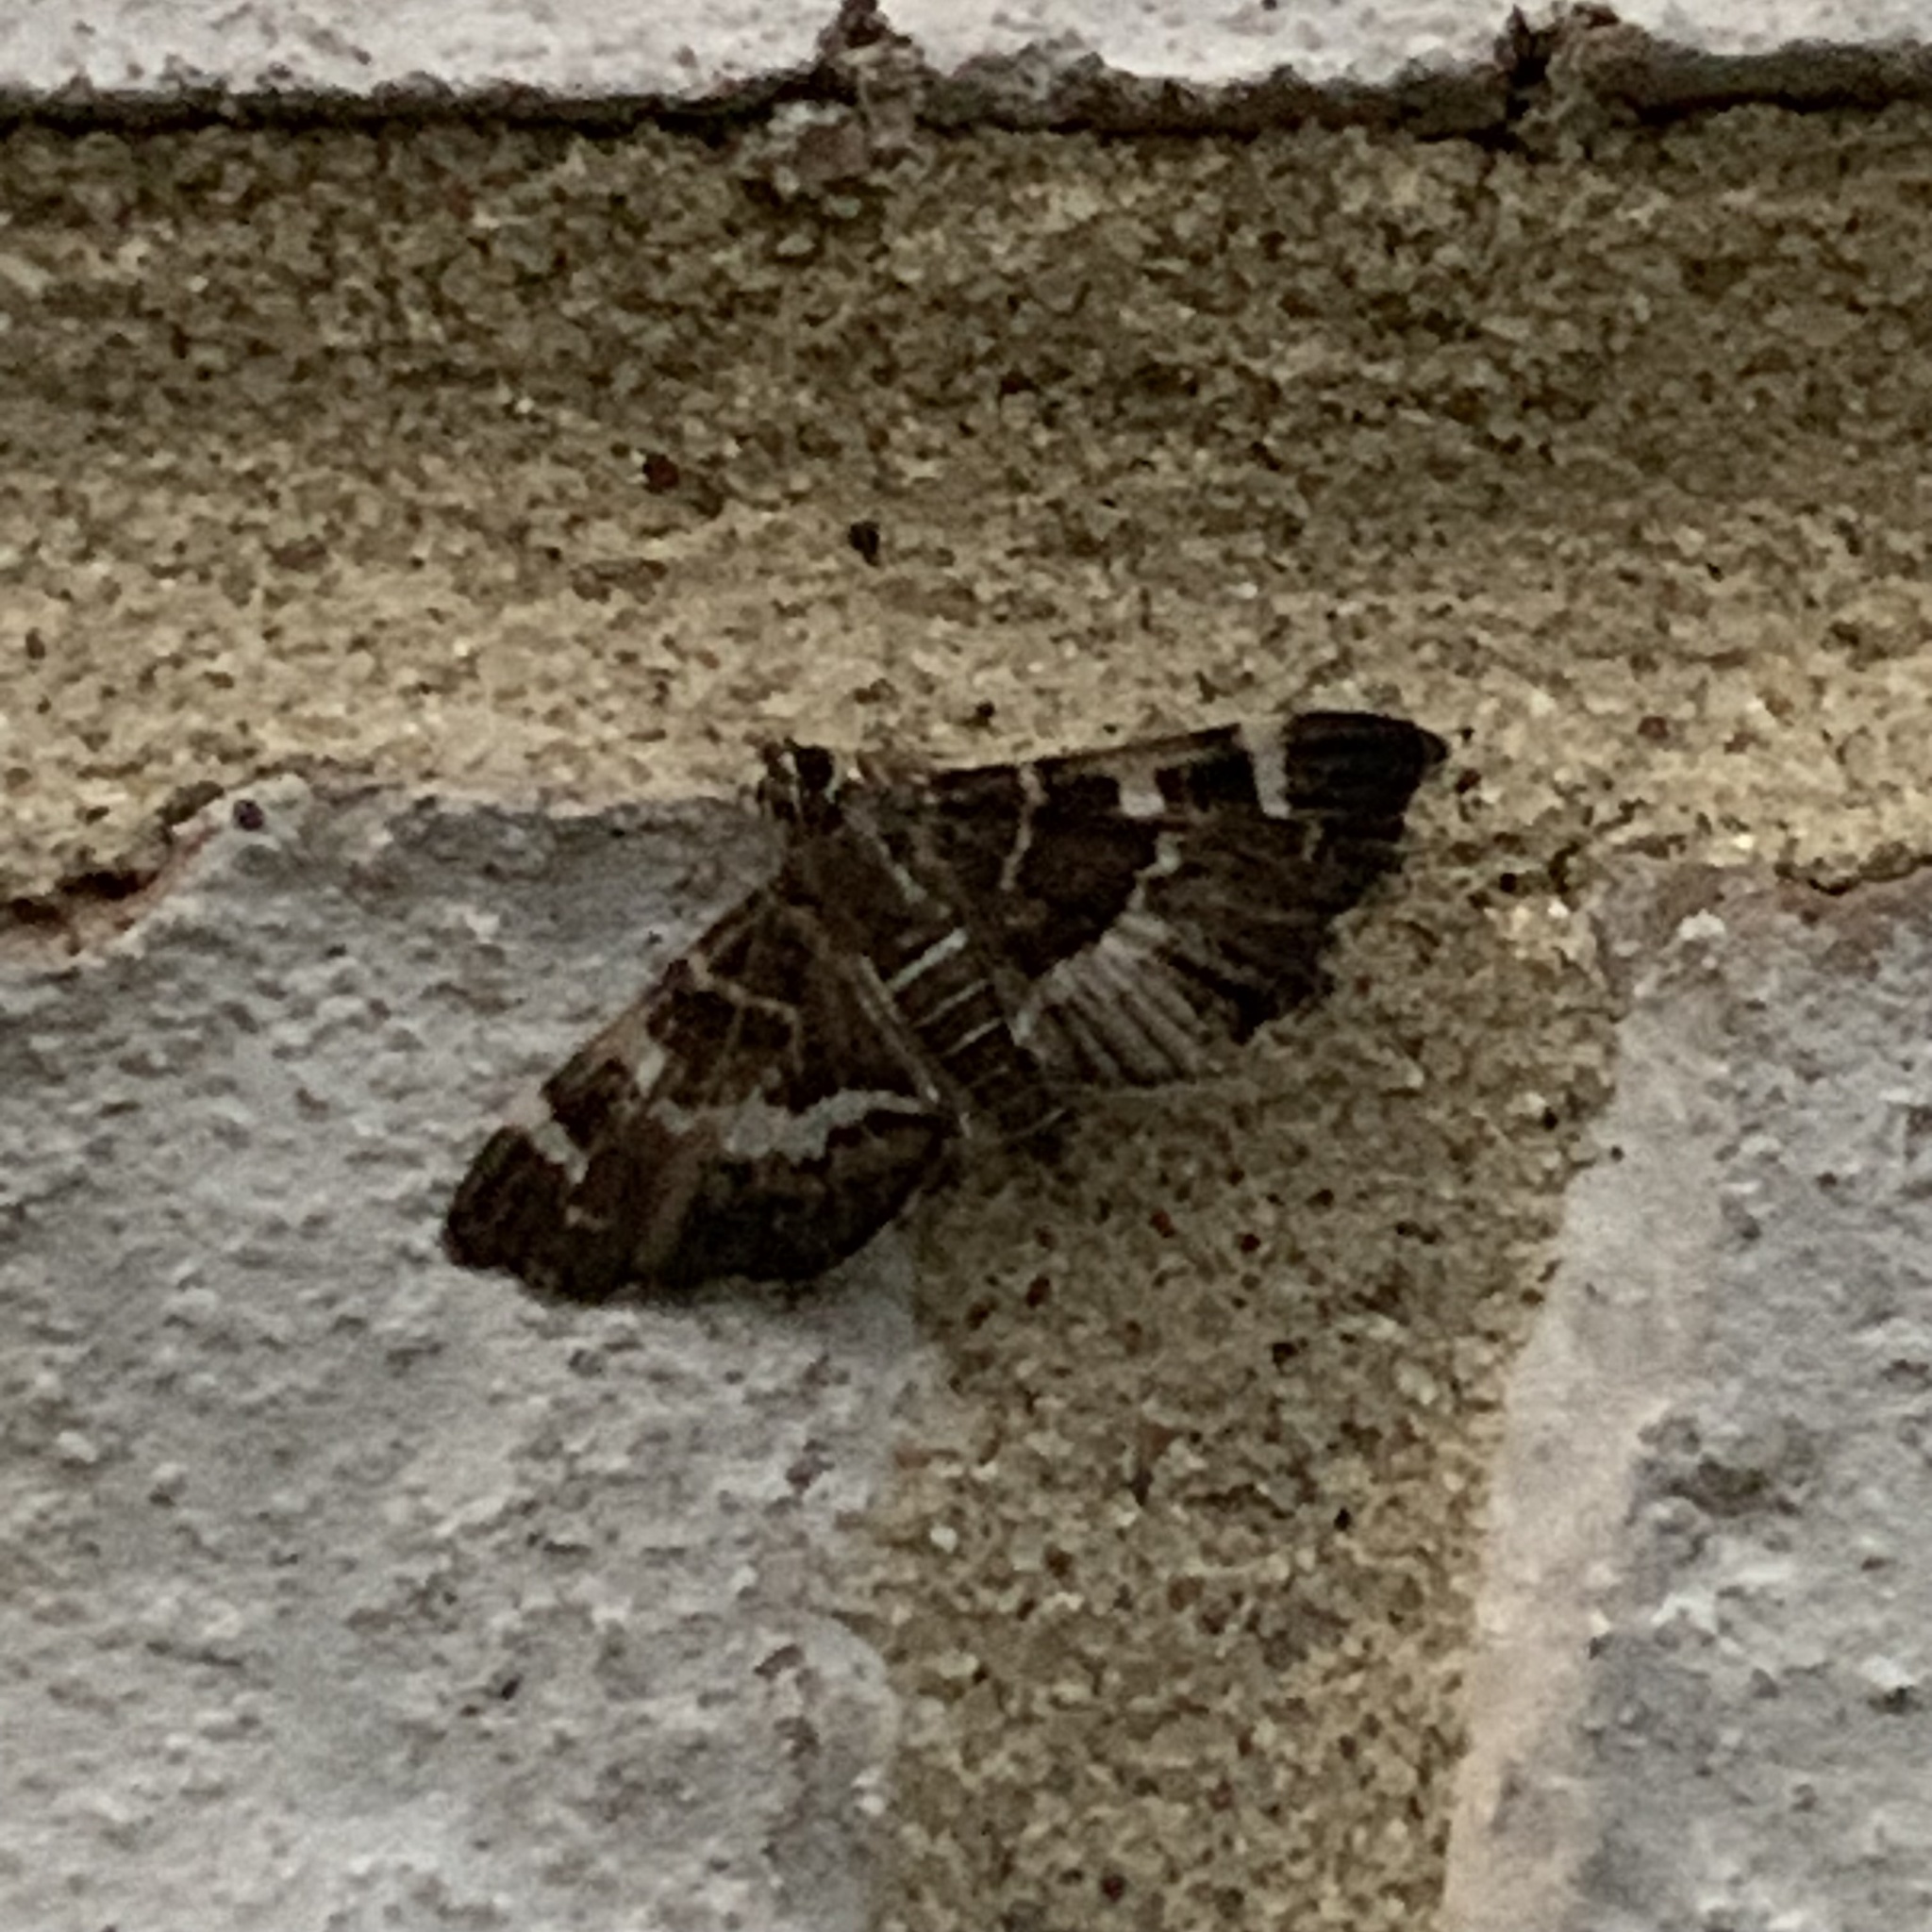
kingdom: Animalia
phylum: Arthropoda
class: Insecta
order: Lepidoptera
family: Crambidae
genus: Hymenia
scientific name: Hymenia perspectalis
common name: Spotted beet webworm
